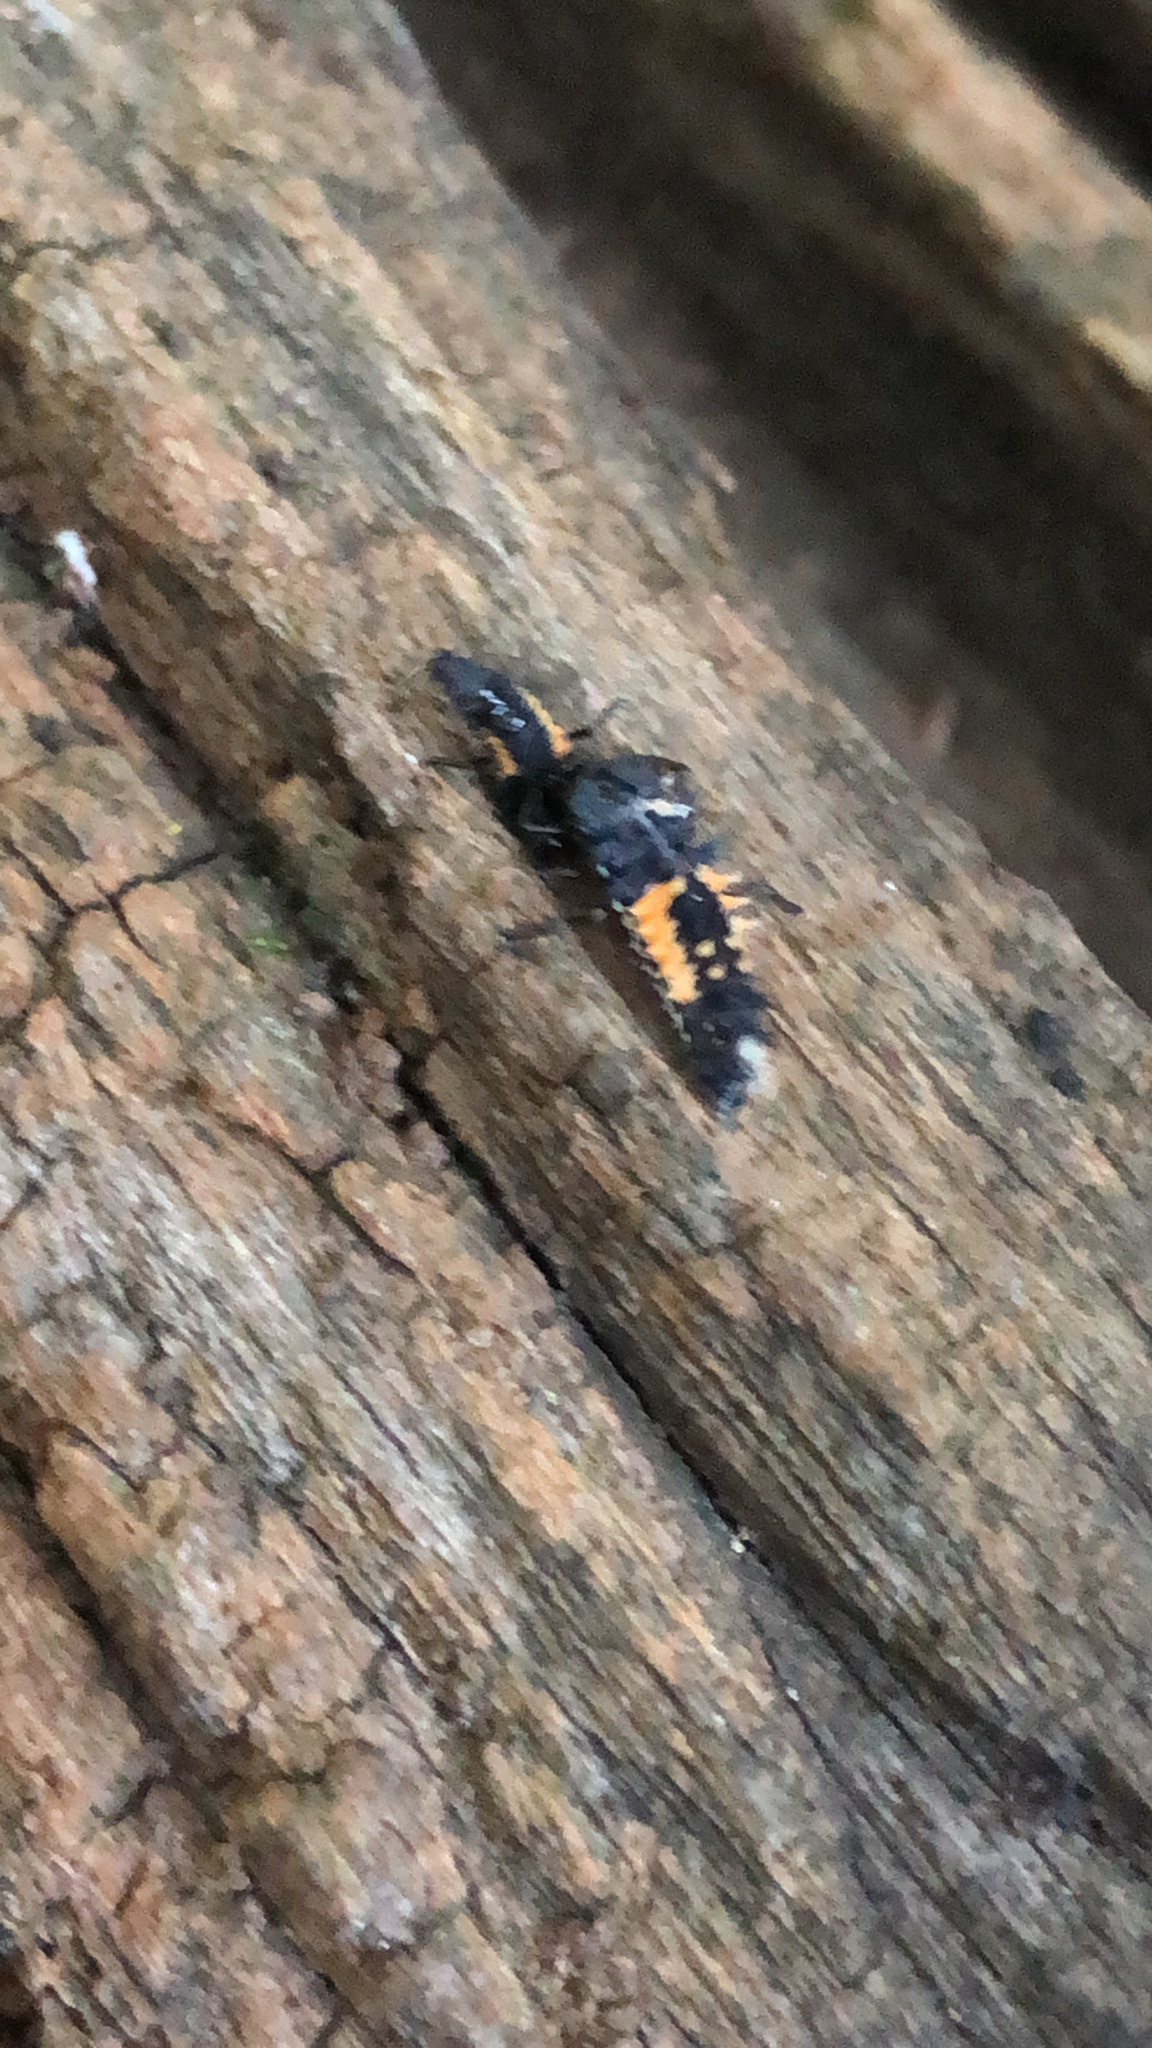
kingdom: Animalia
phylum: Arthropoda
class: Insecta
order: Coleoptera
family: Coccinellidae
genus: Harmonia
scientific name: Harmonia axyridis
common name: Harlequin ladybird
